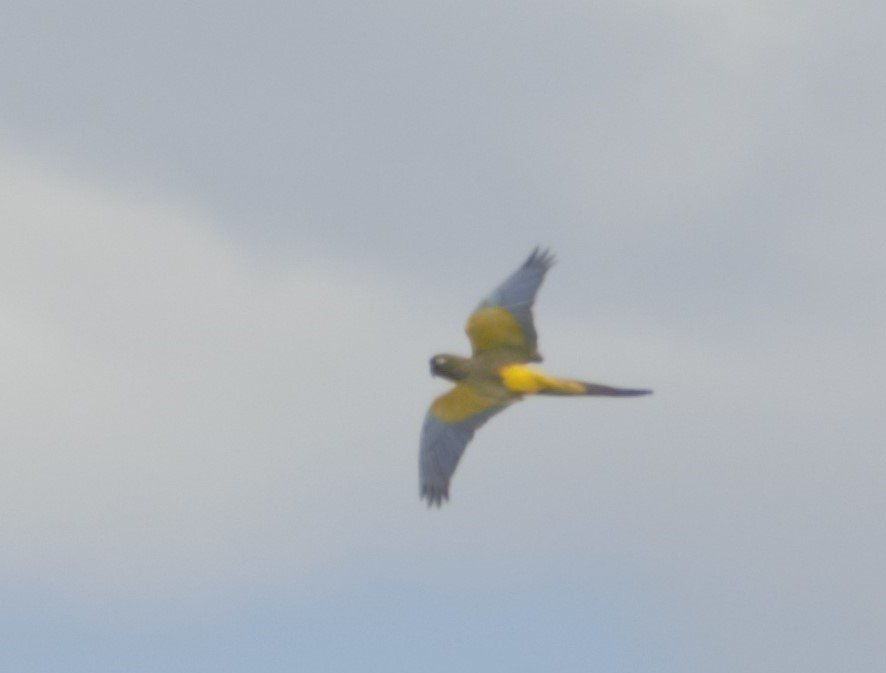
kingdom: Animalia
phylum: Chordata
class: Aves
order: Psittaciformes
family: Psittacidae
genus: Cyanoliseus
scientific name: Cyanoliseus patagonus
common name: Burrowing parrot
